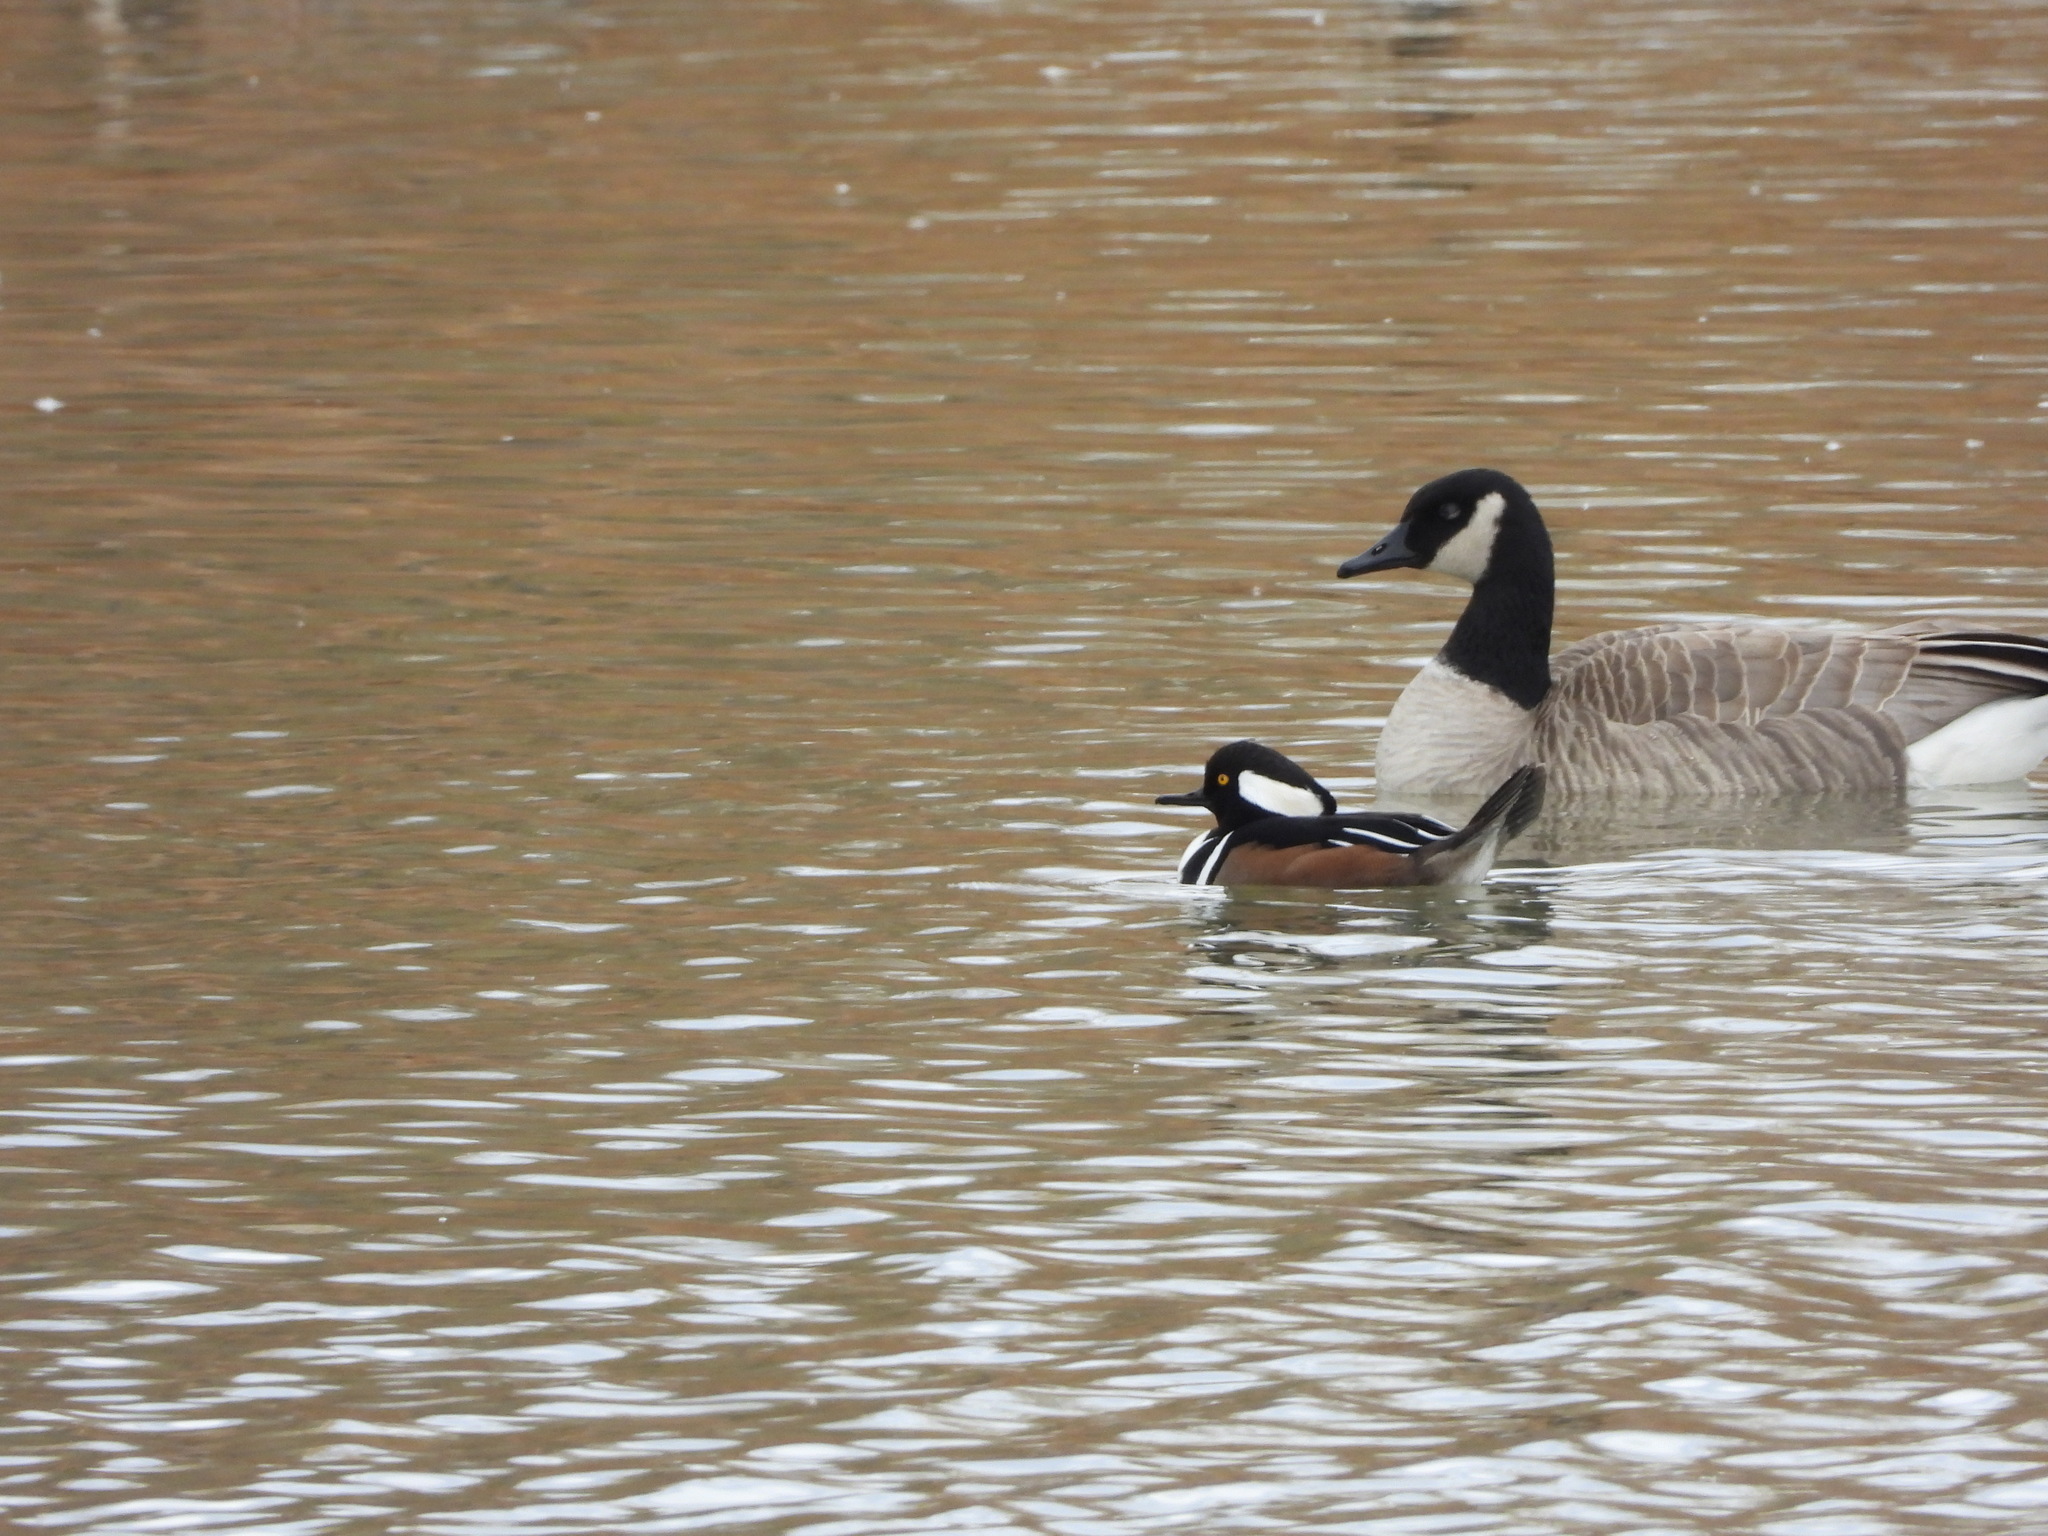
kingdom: Animalia
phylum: Chordata
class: Aves
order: Anseriformes
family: Anatidae
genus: Lophodytes
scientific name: Lophodytes cucullatus
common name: Hooded merganser
